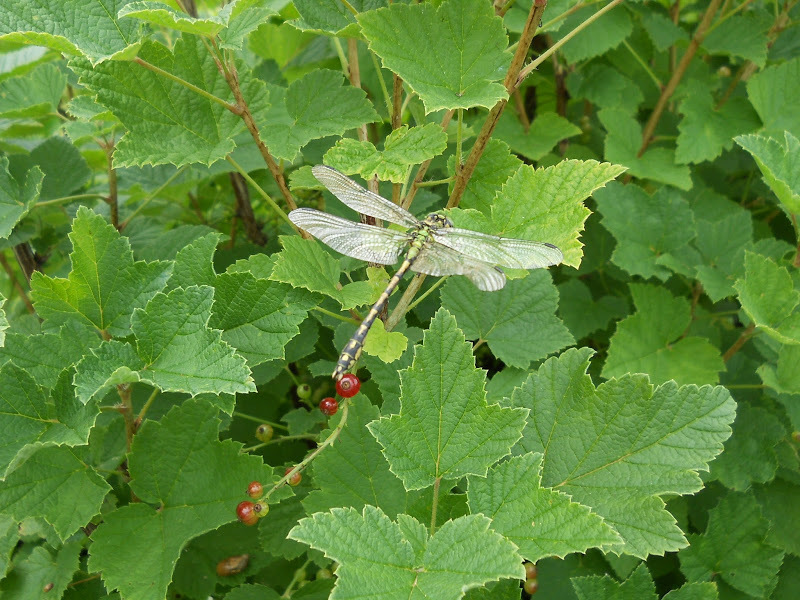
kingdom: Animalia
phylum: Arthropoda
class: Insecta
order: Odonata
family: Gomphidae
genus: Ophiogomphus
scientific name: Ophiogomphus cecilia
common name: Green snaketail
